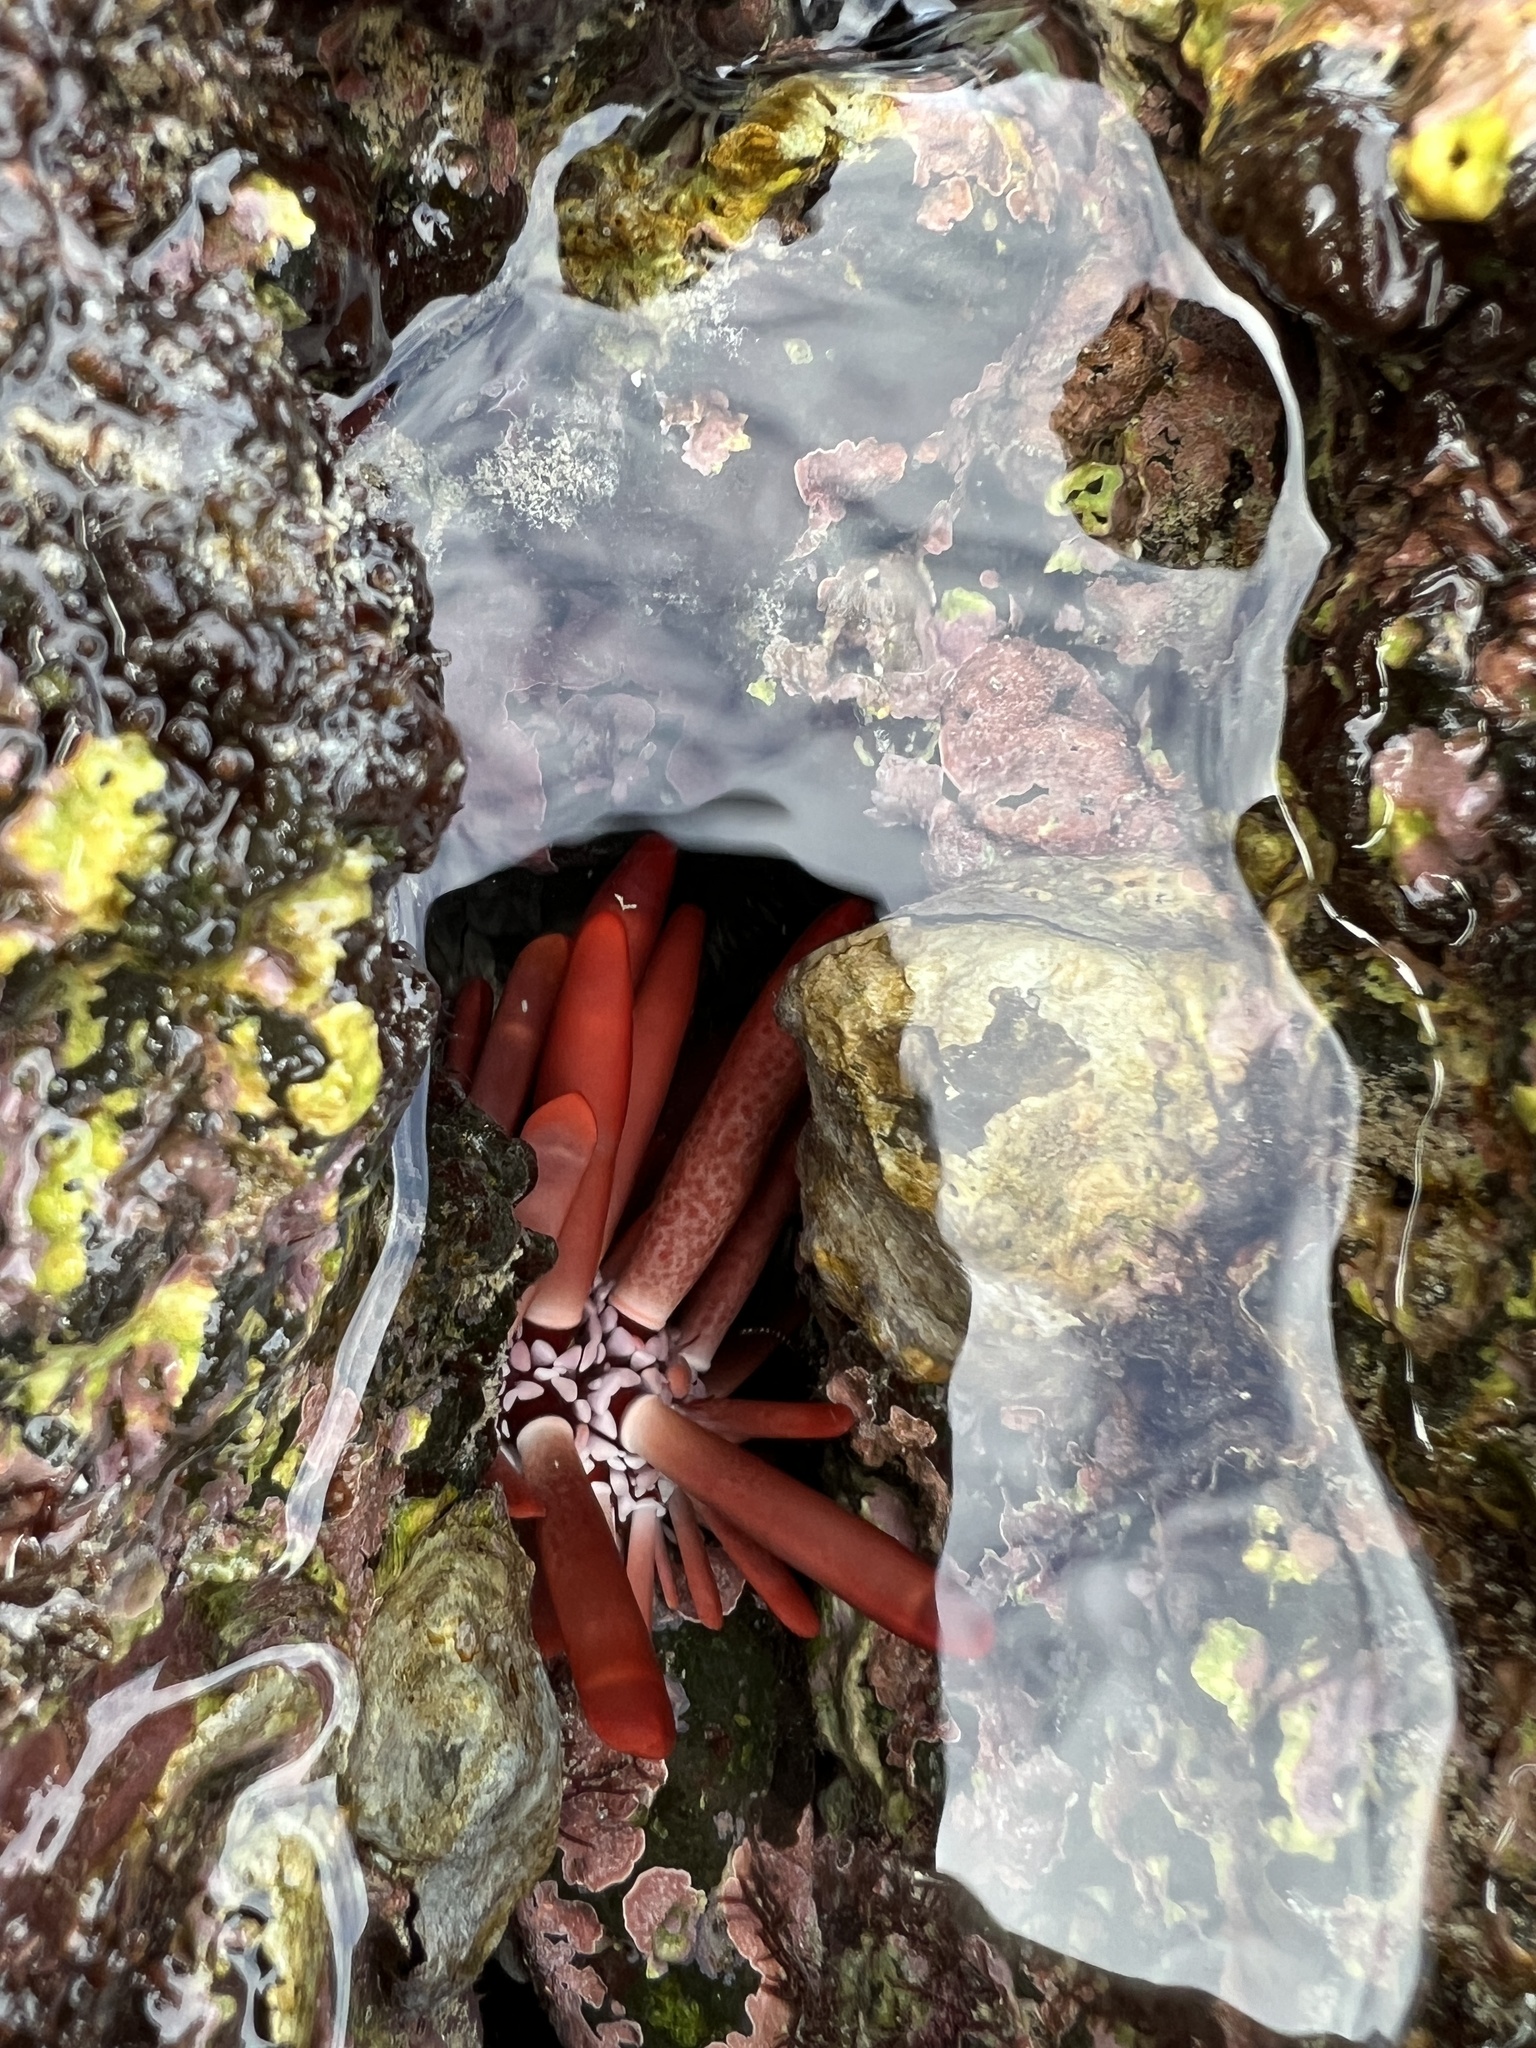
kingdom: Animalia
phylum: Echinodermata
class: Echinoidea
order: Camarodonta
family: Echinometridae
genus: Heterocentrotus
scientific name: Heterocentrotus mamillatus
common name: Slate pencil urchin
